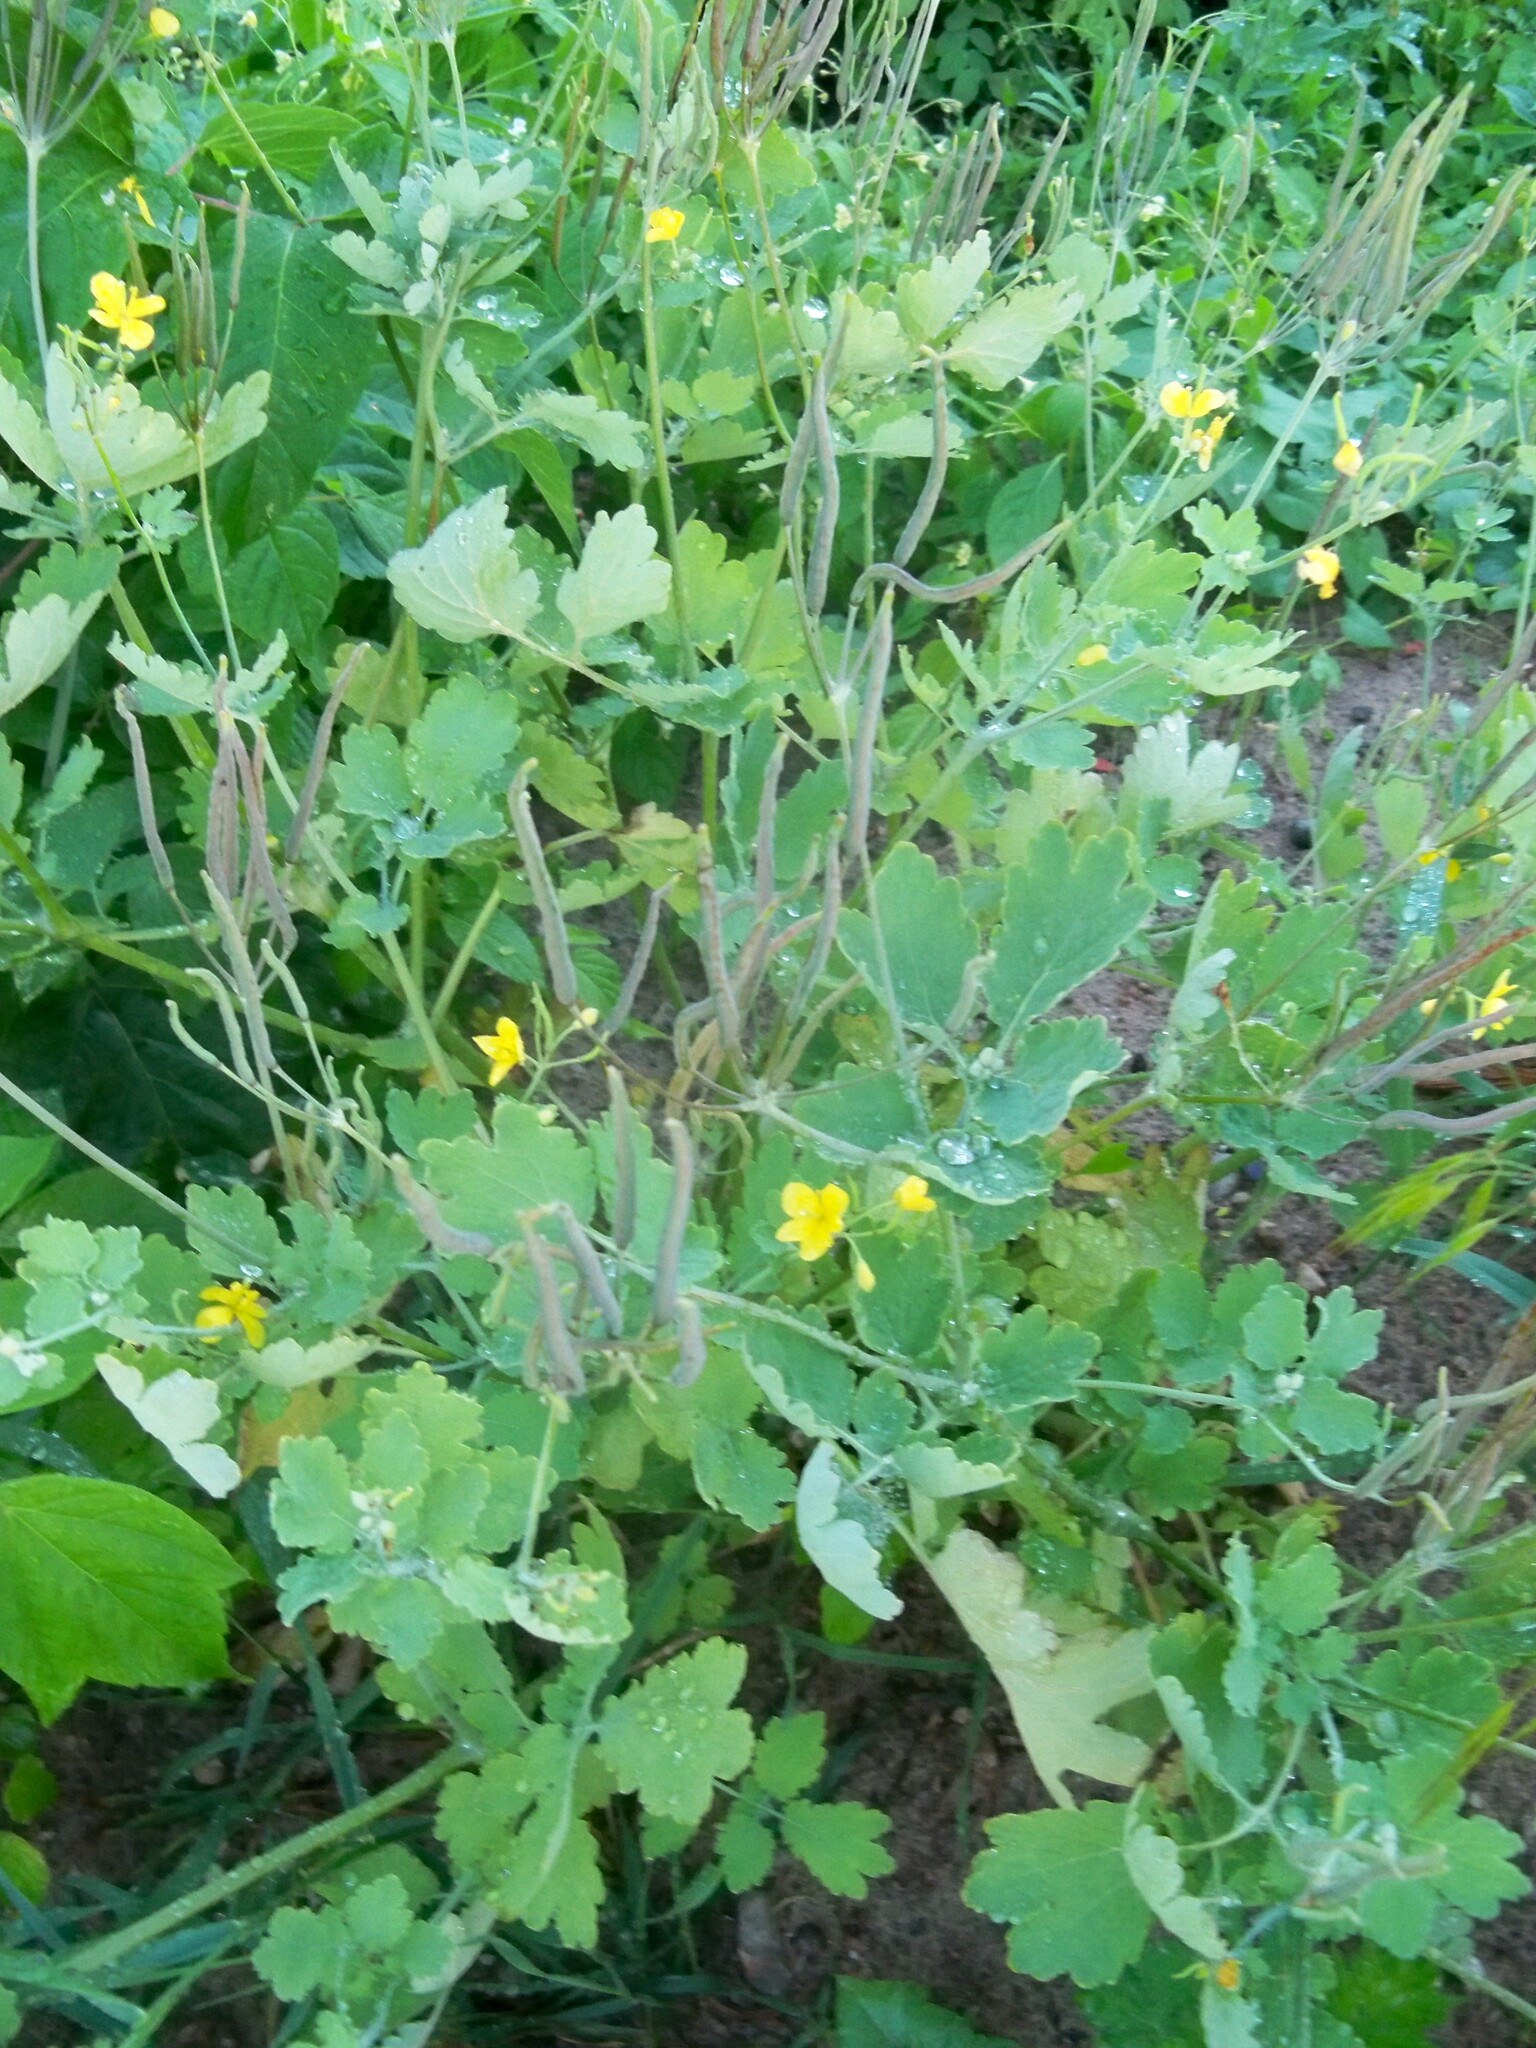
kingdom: Plantae
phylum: Tracheophyta
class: Magnoliopsida
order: Ranunculales
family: Papaveraceae
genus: Chelidonium
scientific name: Chelidonium majus
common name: Greater celandine
